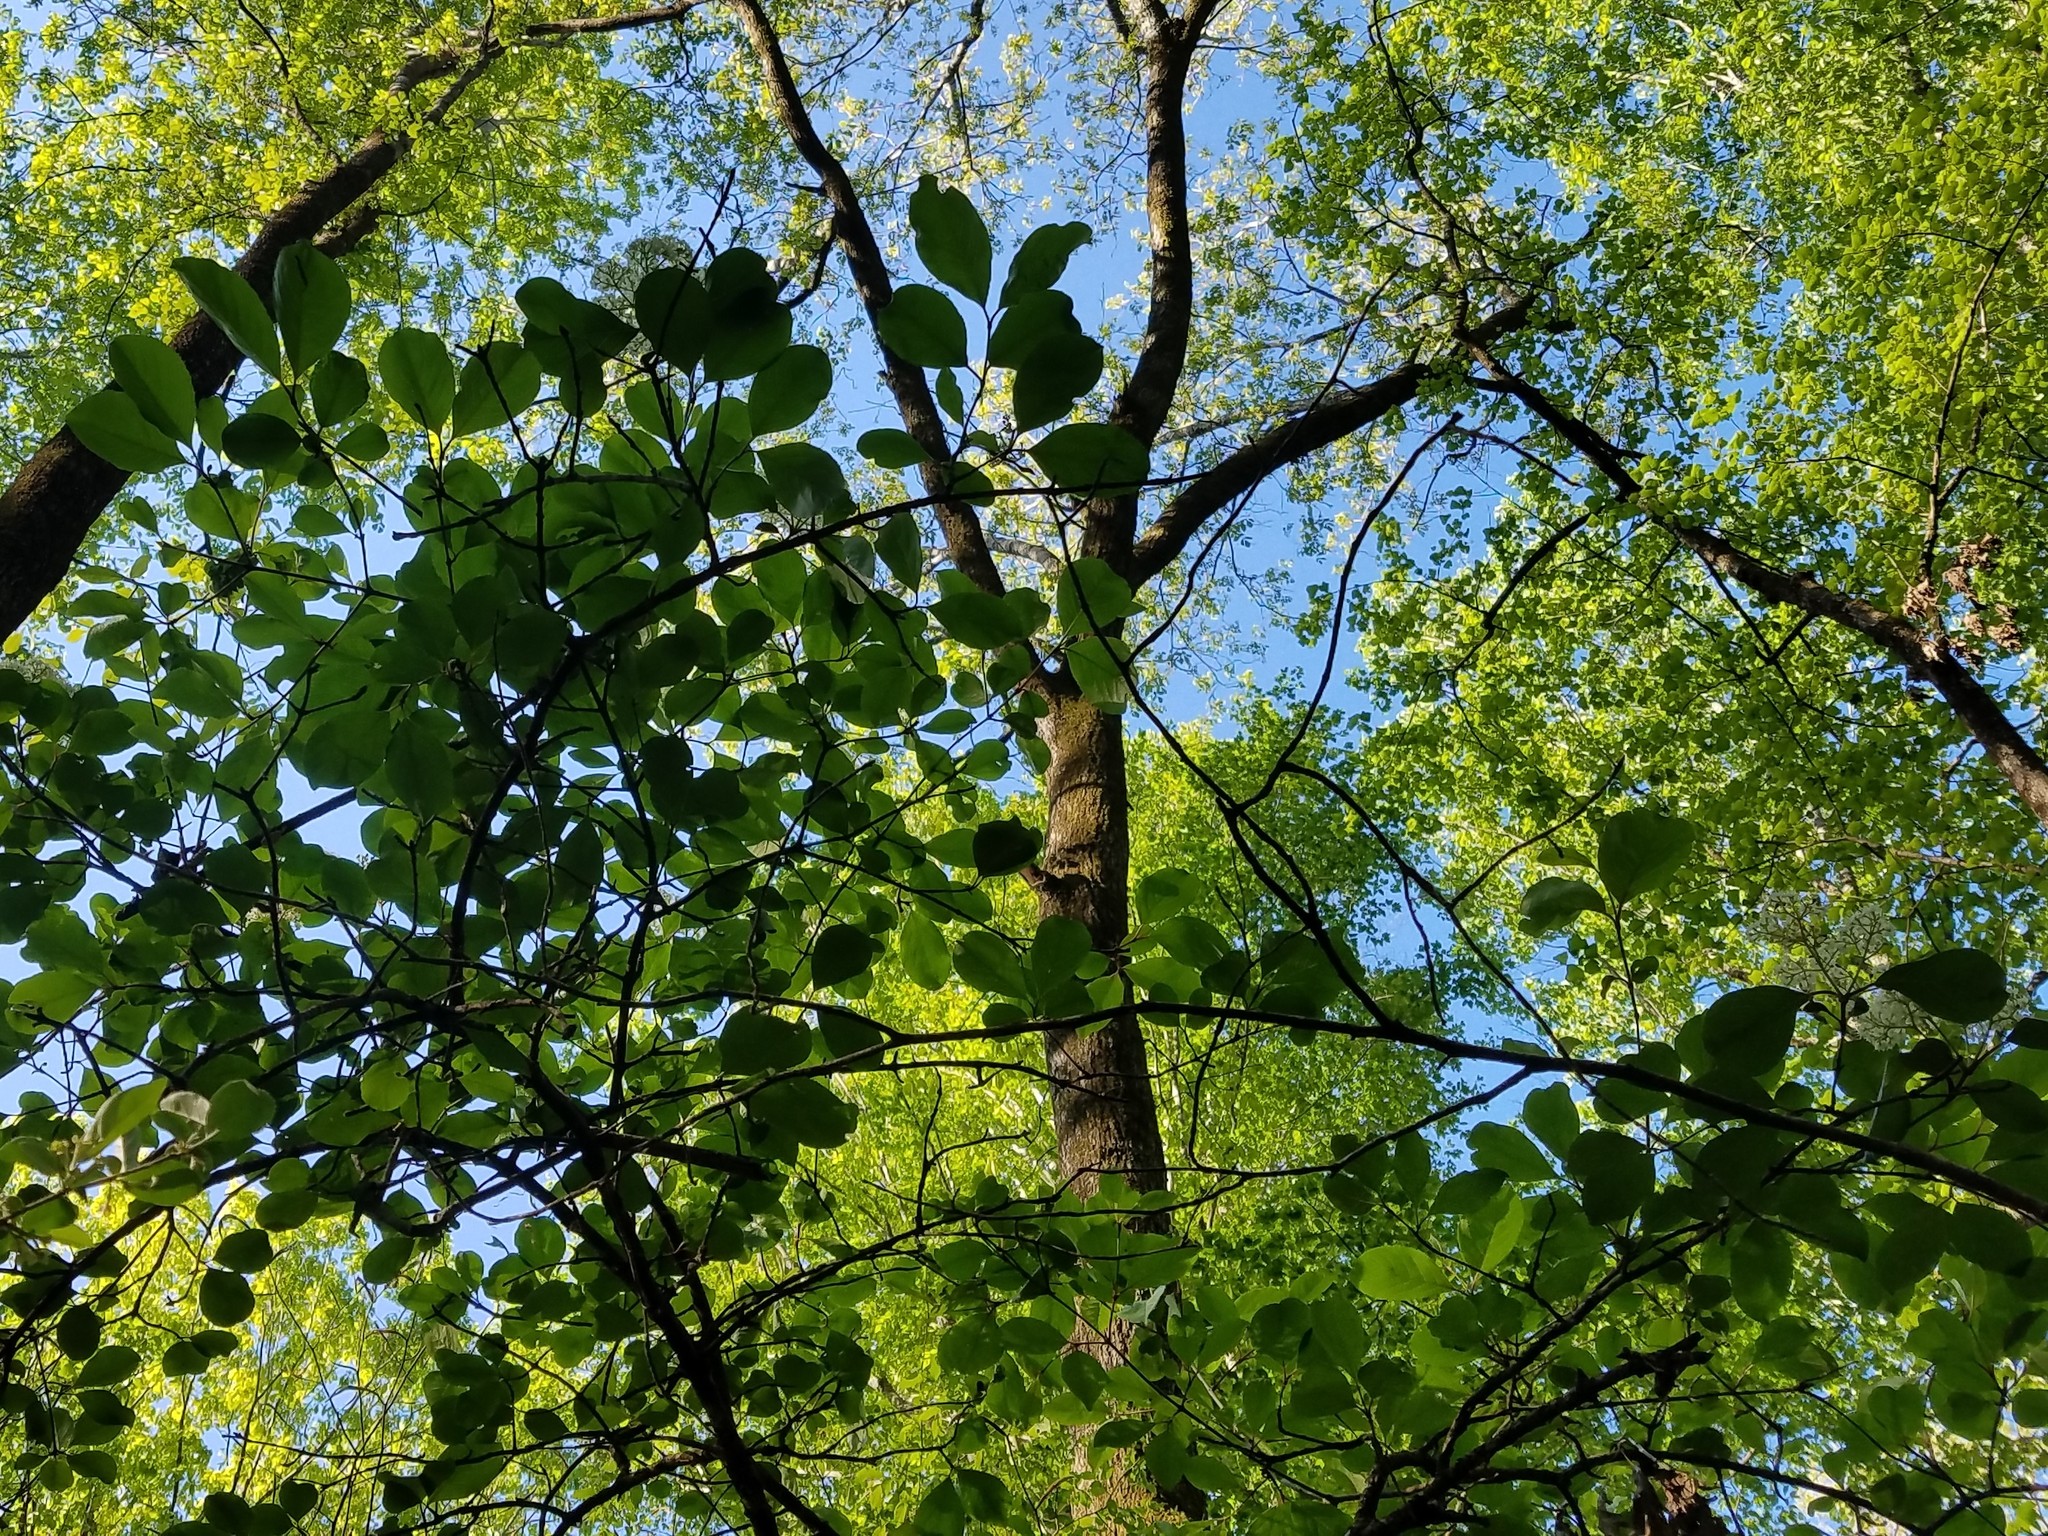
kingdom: Plantae
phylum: Tracheophyta
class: Magnoliopsida
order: Dipsacales
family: Viburnaceae
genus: Viburnum
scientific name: Viburnum rufidulum
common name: Blue haw
